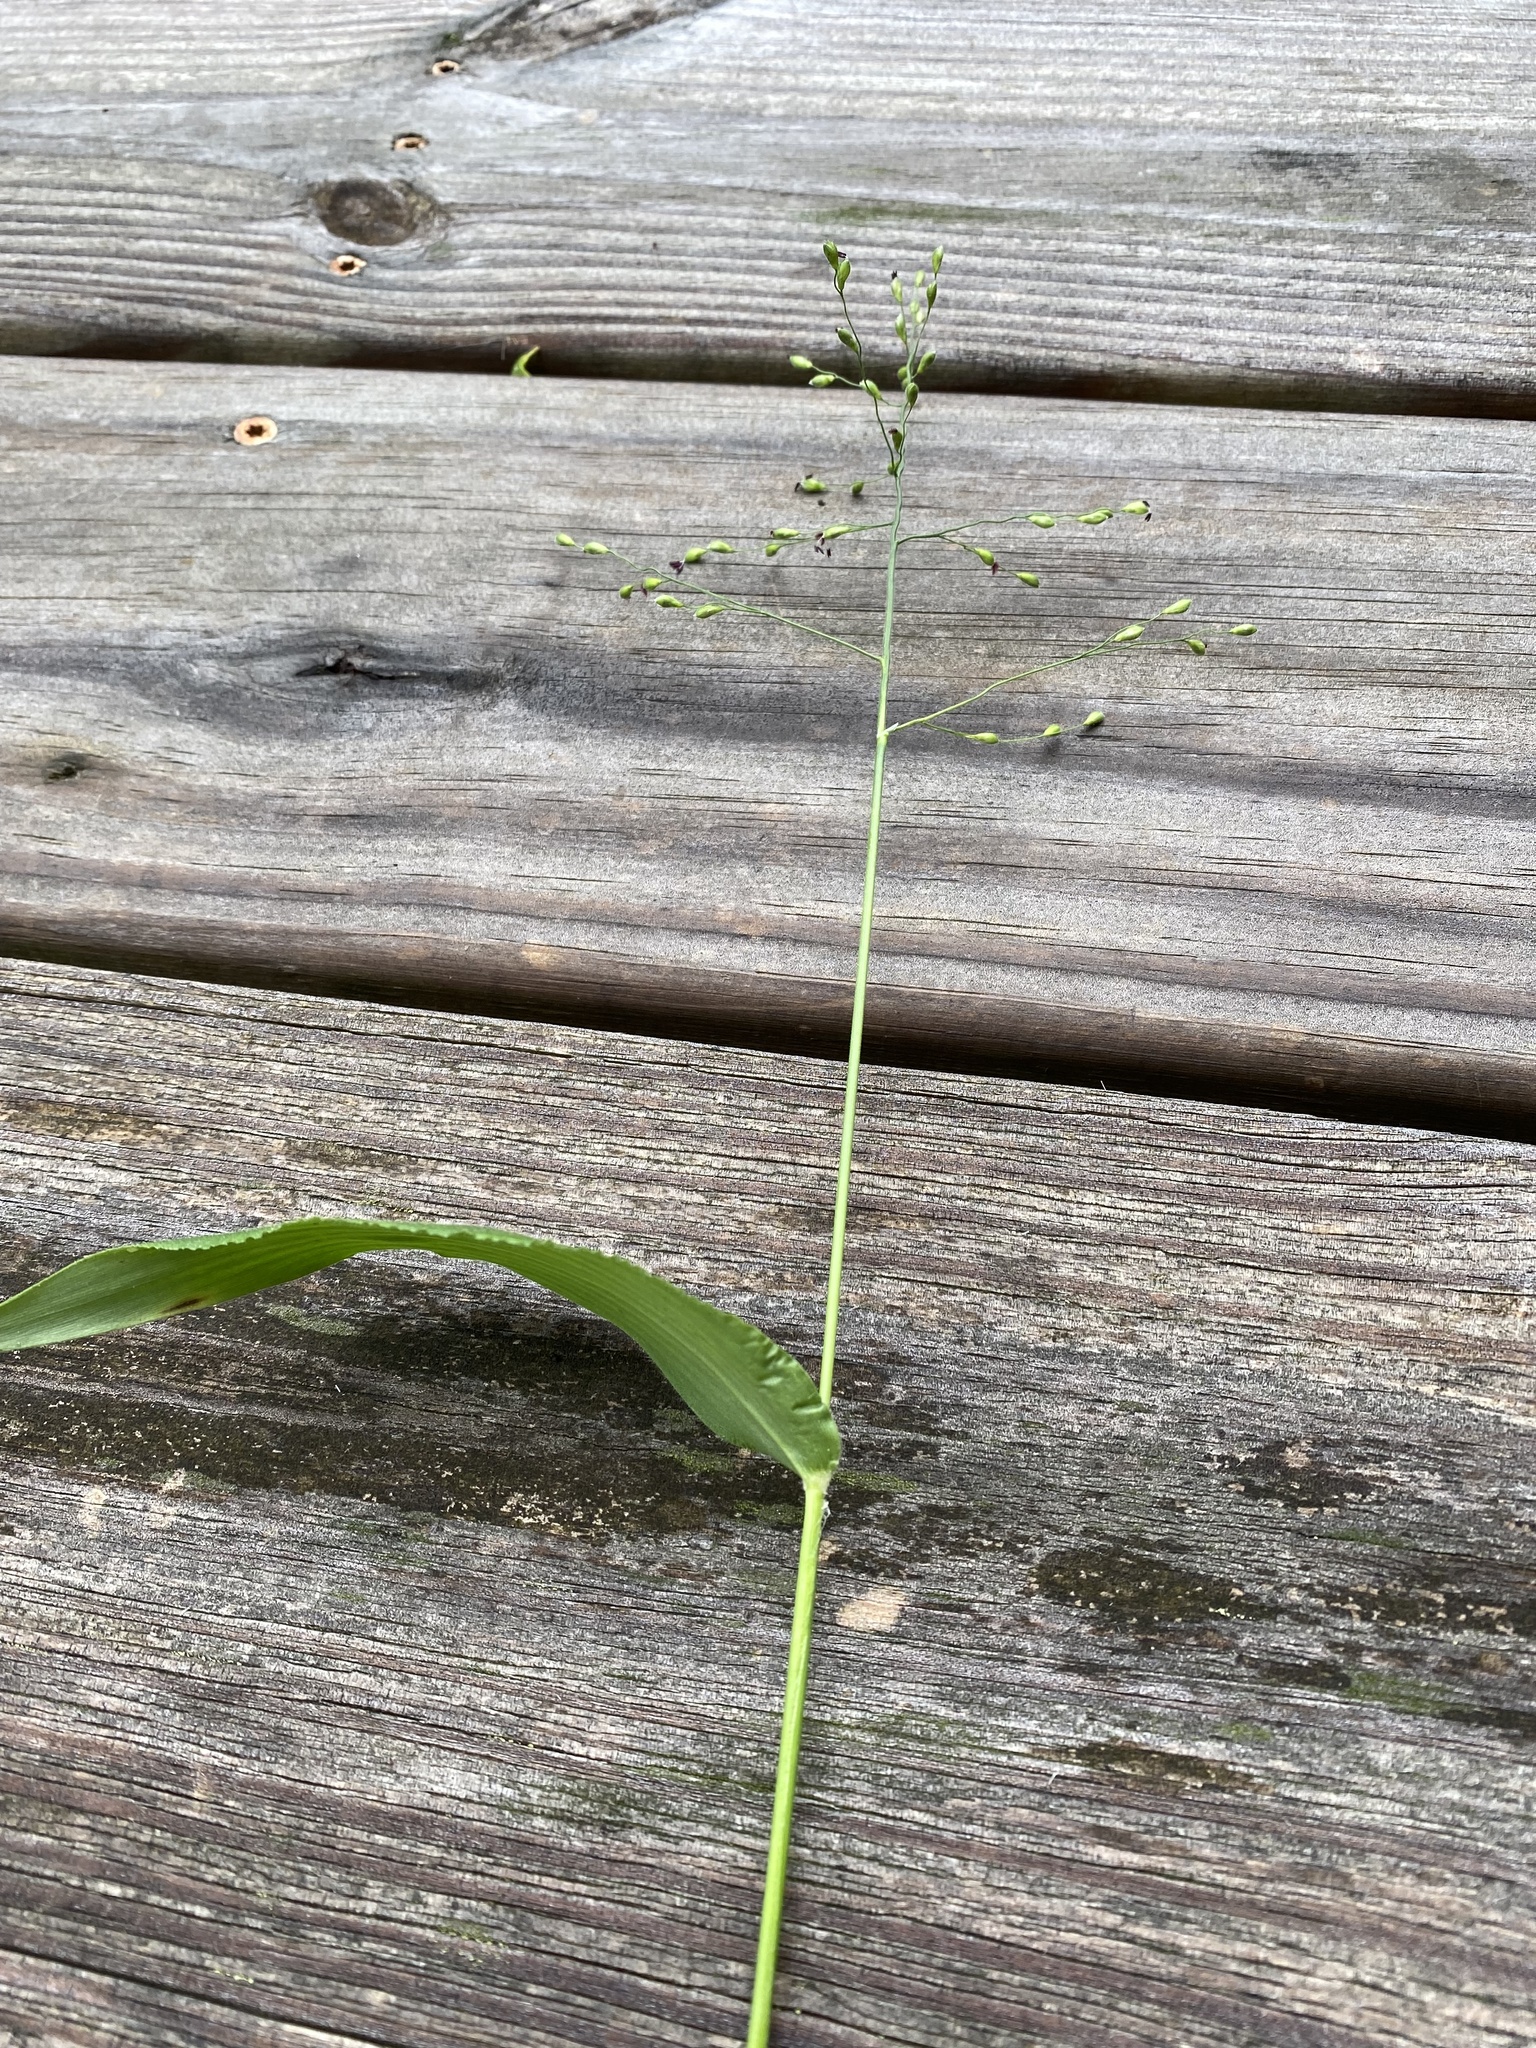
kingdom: Plantae
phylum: Tracheophyta
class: Liliopsida
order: Poales
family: Poaceae
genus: Dichanthelium
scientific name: Dichanthelium latifolium
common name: Broad-leaved panicgrass
